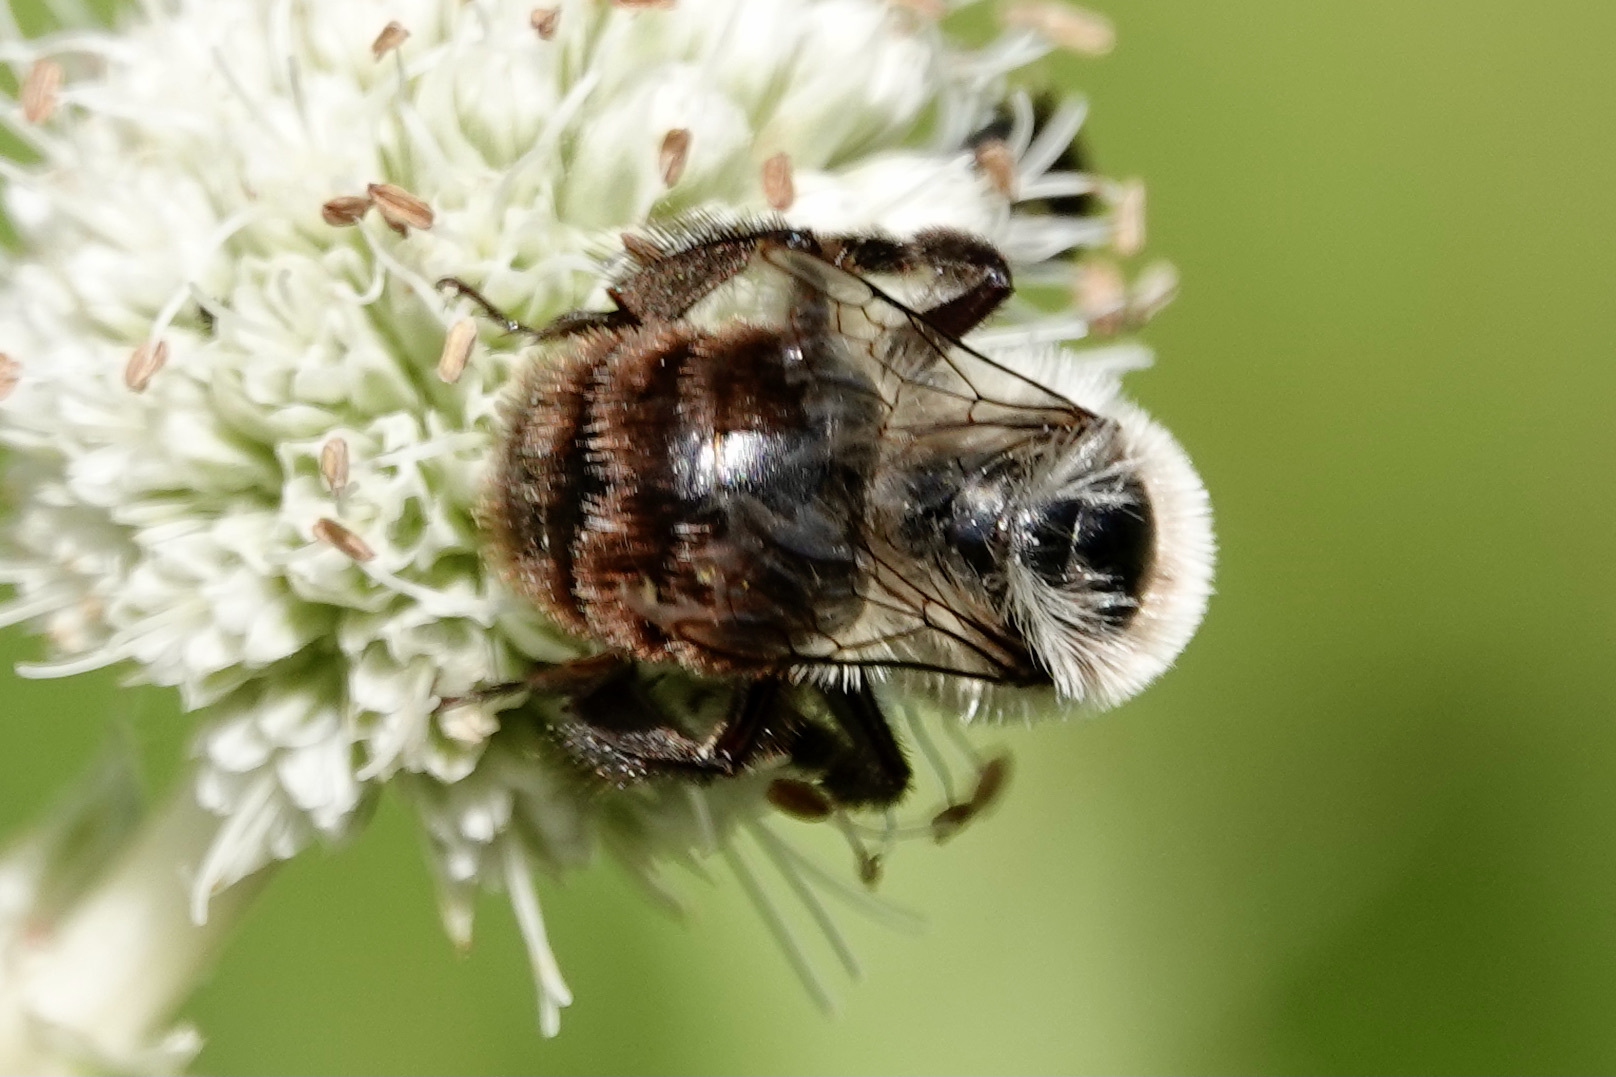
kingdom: Animalia
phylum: Arthropoda
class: Insecta
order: Hymenoptera
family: Apidae
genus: Bombus
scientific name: Bombus impatiens
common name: Common eastern bumble bee
